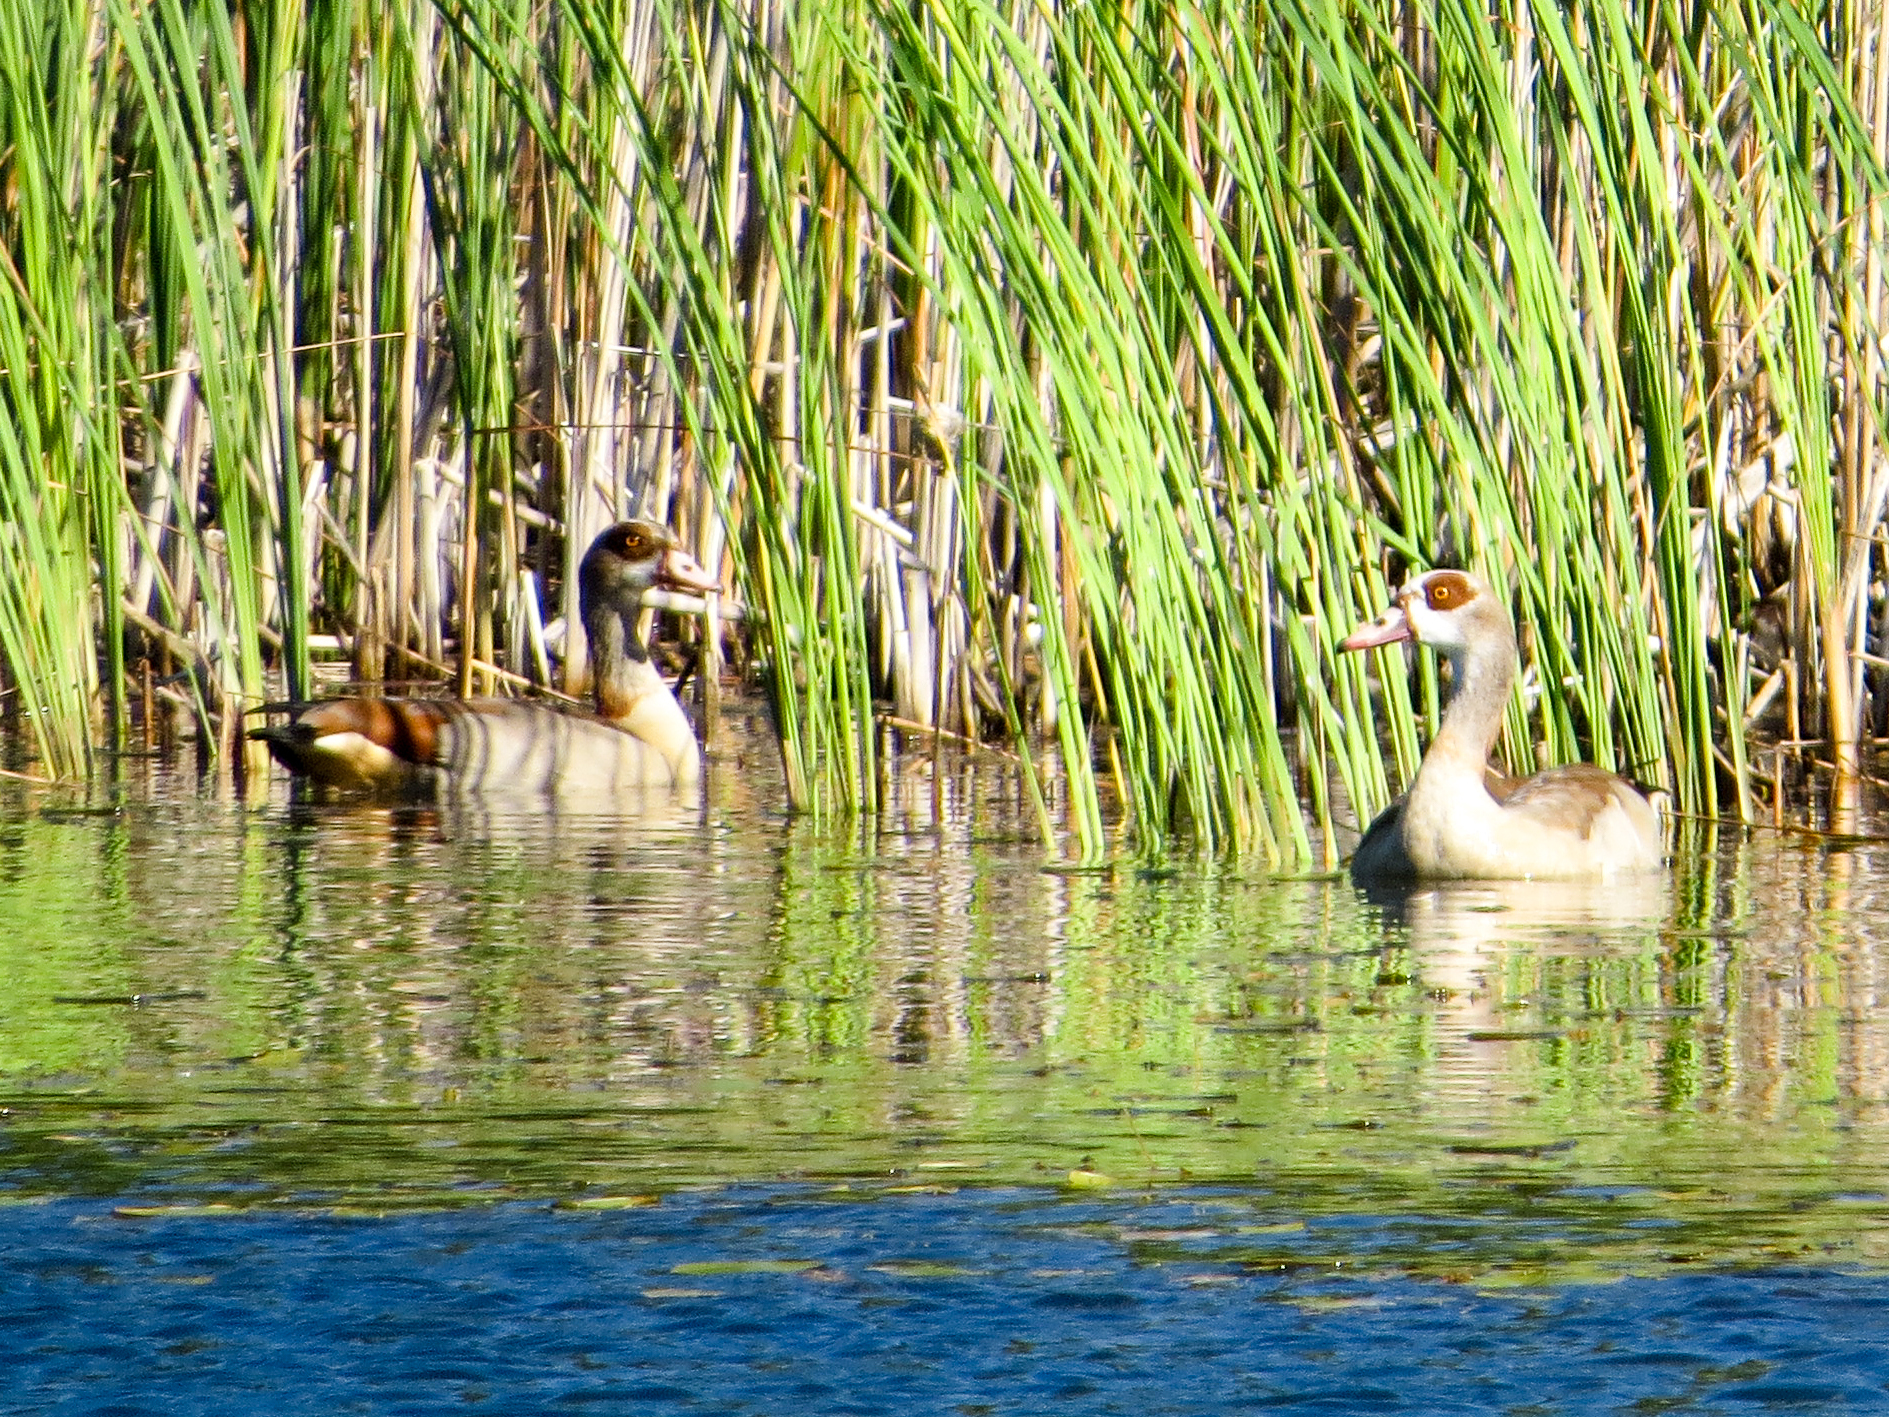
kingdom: Animalia
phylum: Chordata
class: Aves
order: Anseriformes
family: Anatidae
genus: Alopochen
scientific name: Alopochen aegyptiaca
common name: Egyptian goose
